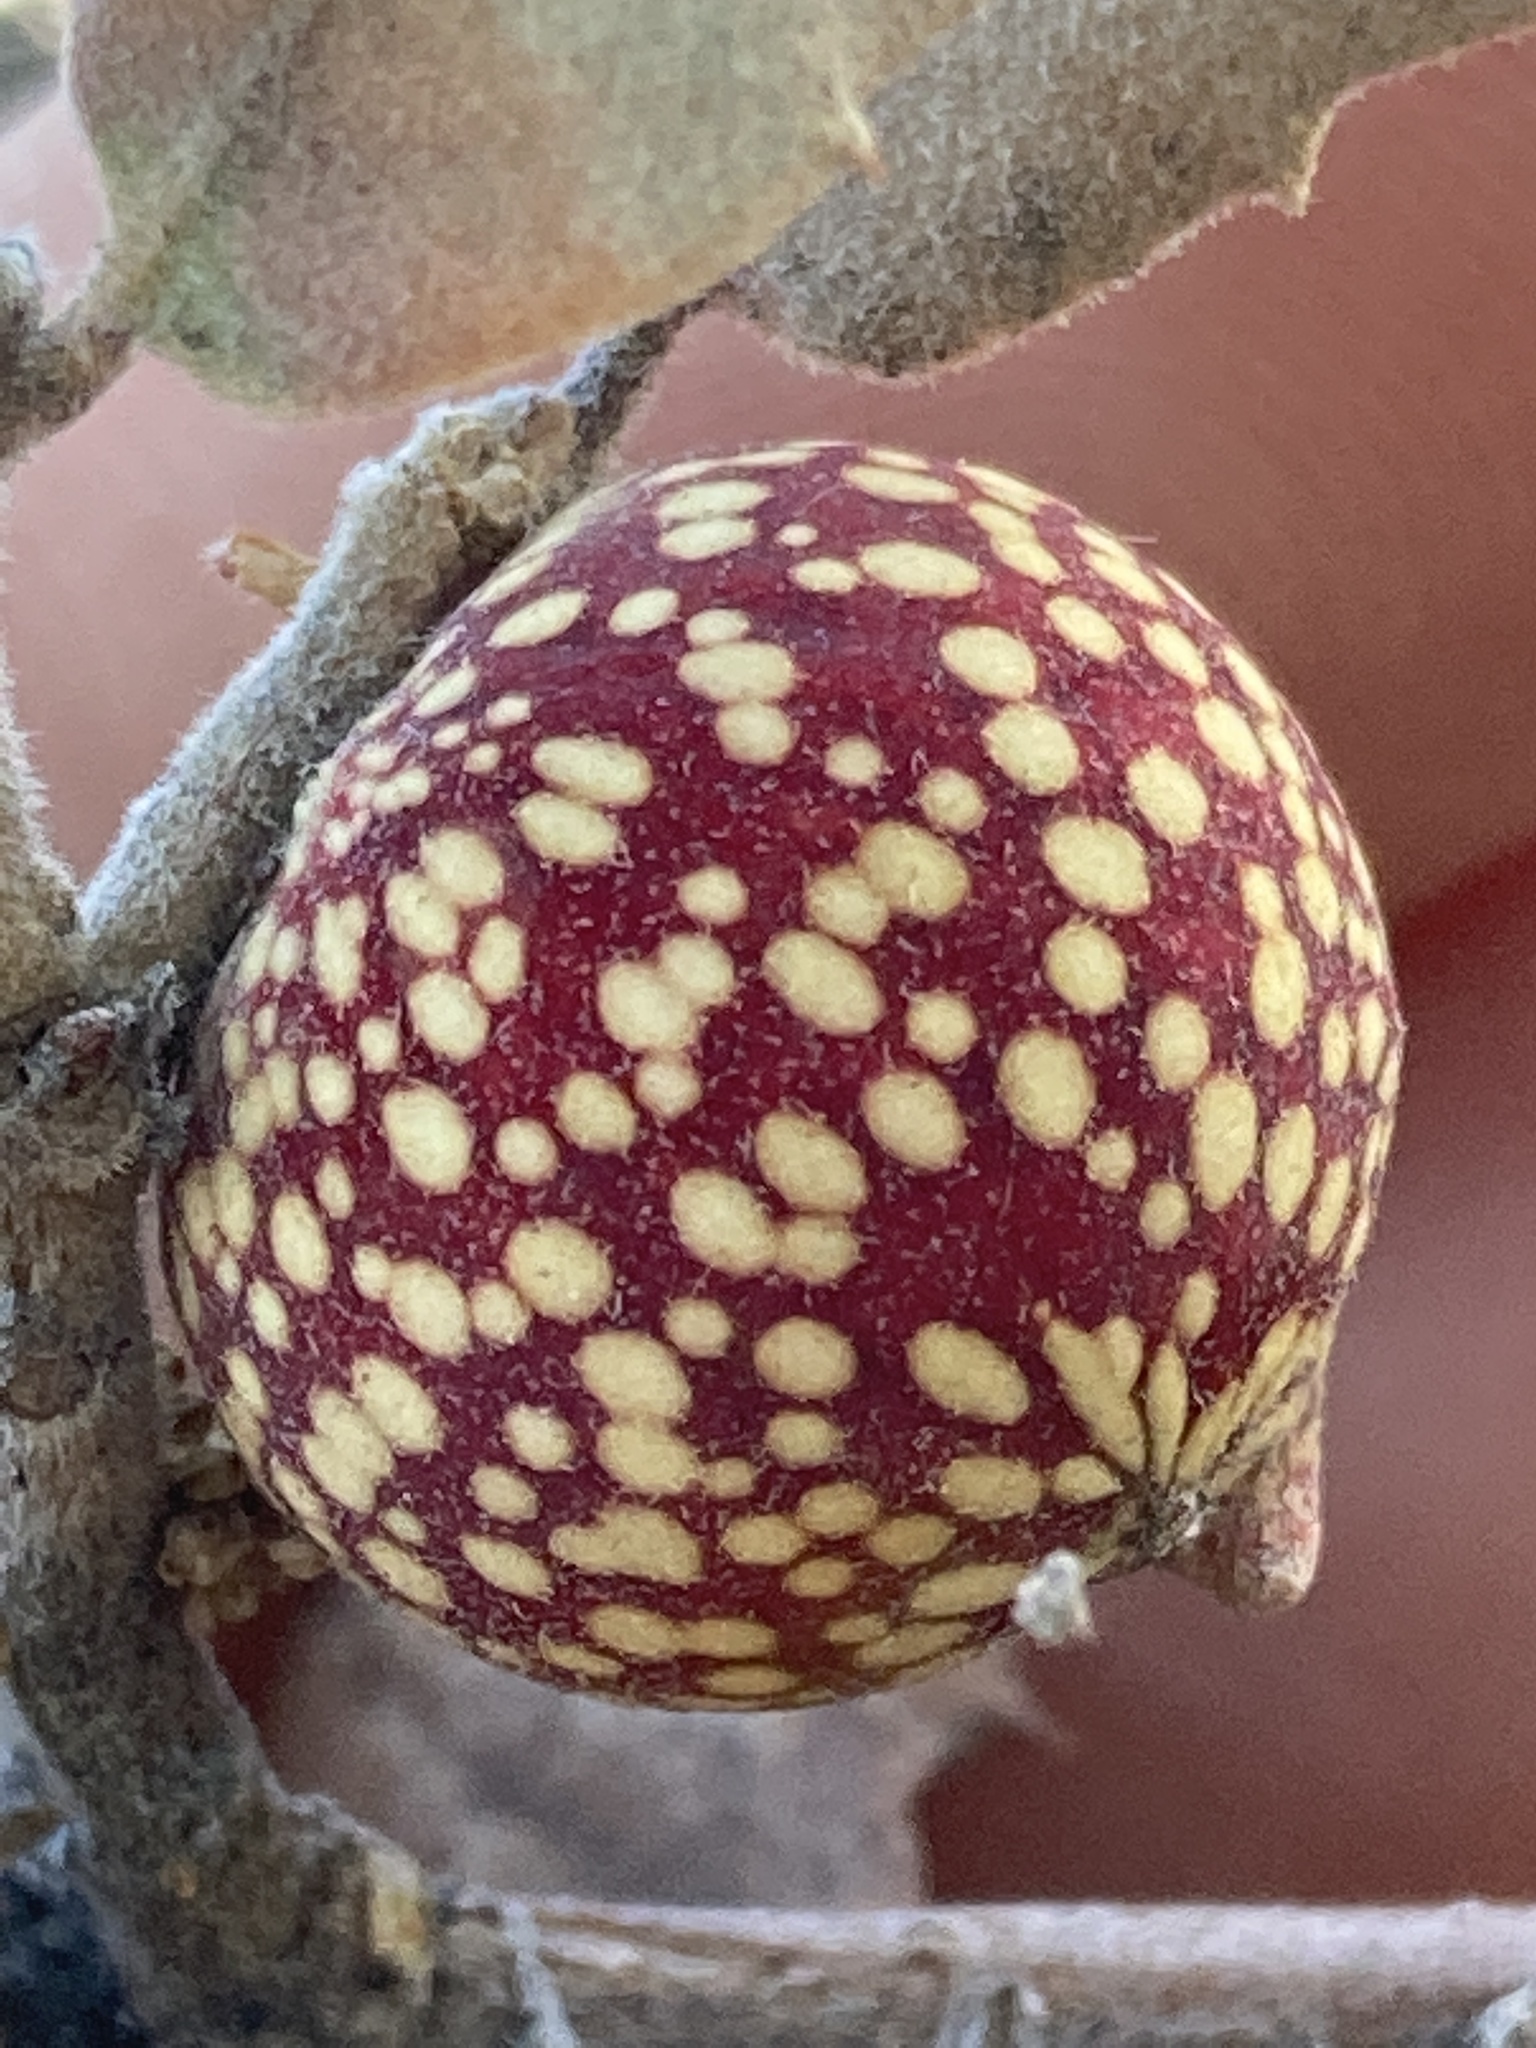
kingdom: Animalia
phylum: Arthropoda
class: Insecta
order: Hymenoptera
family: Cynipidae
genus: Burnettweldia
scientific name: Burnettweldia
